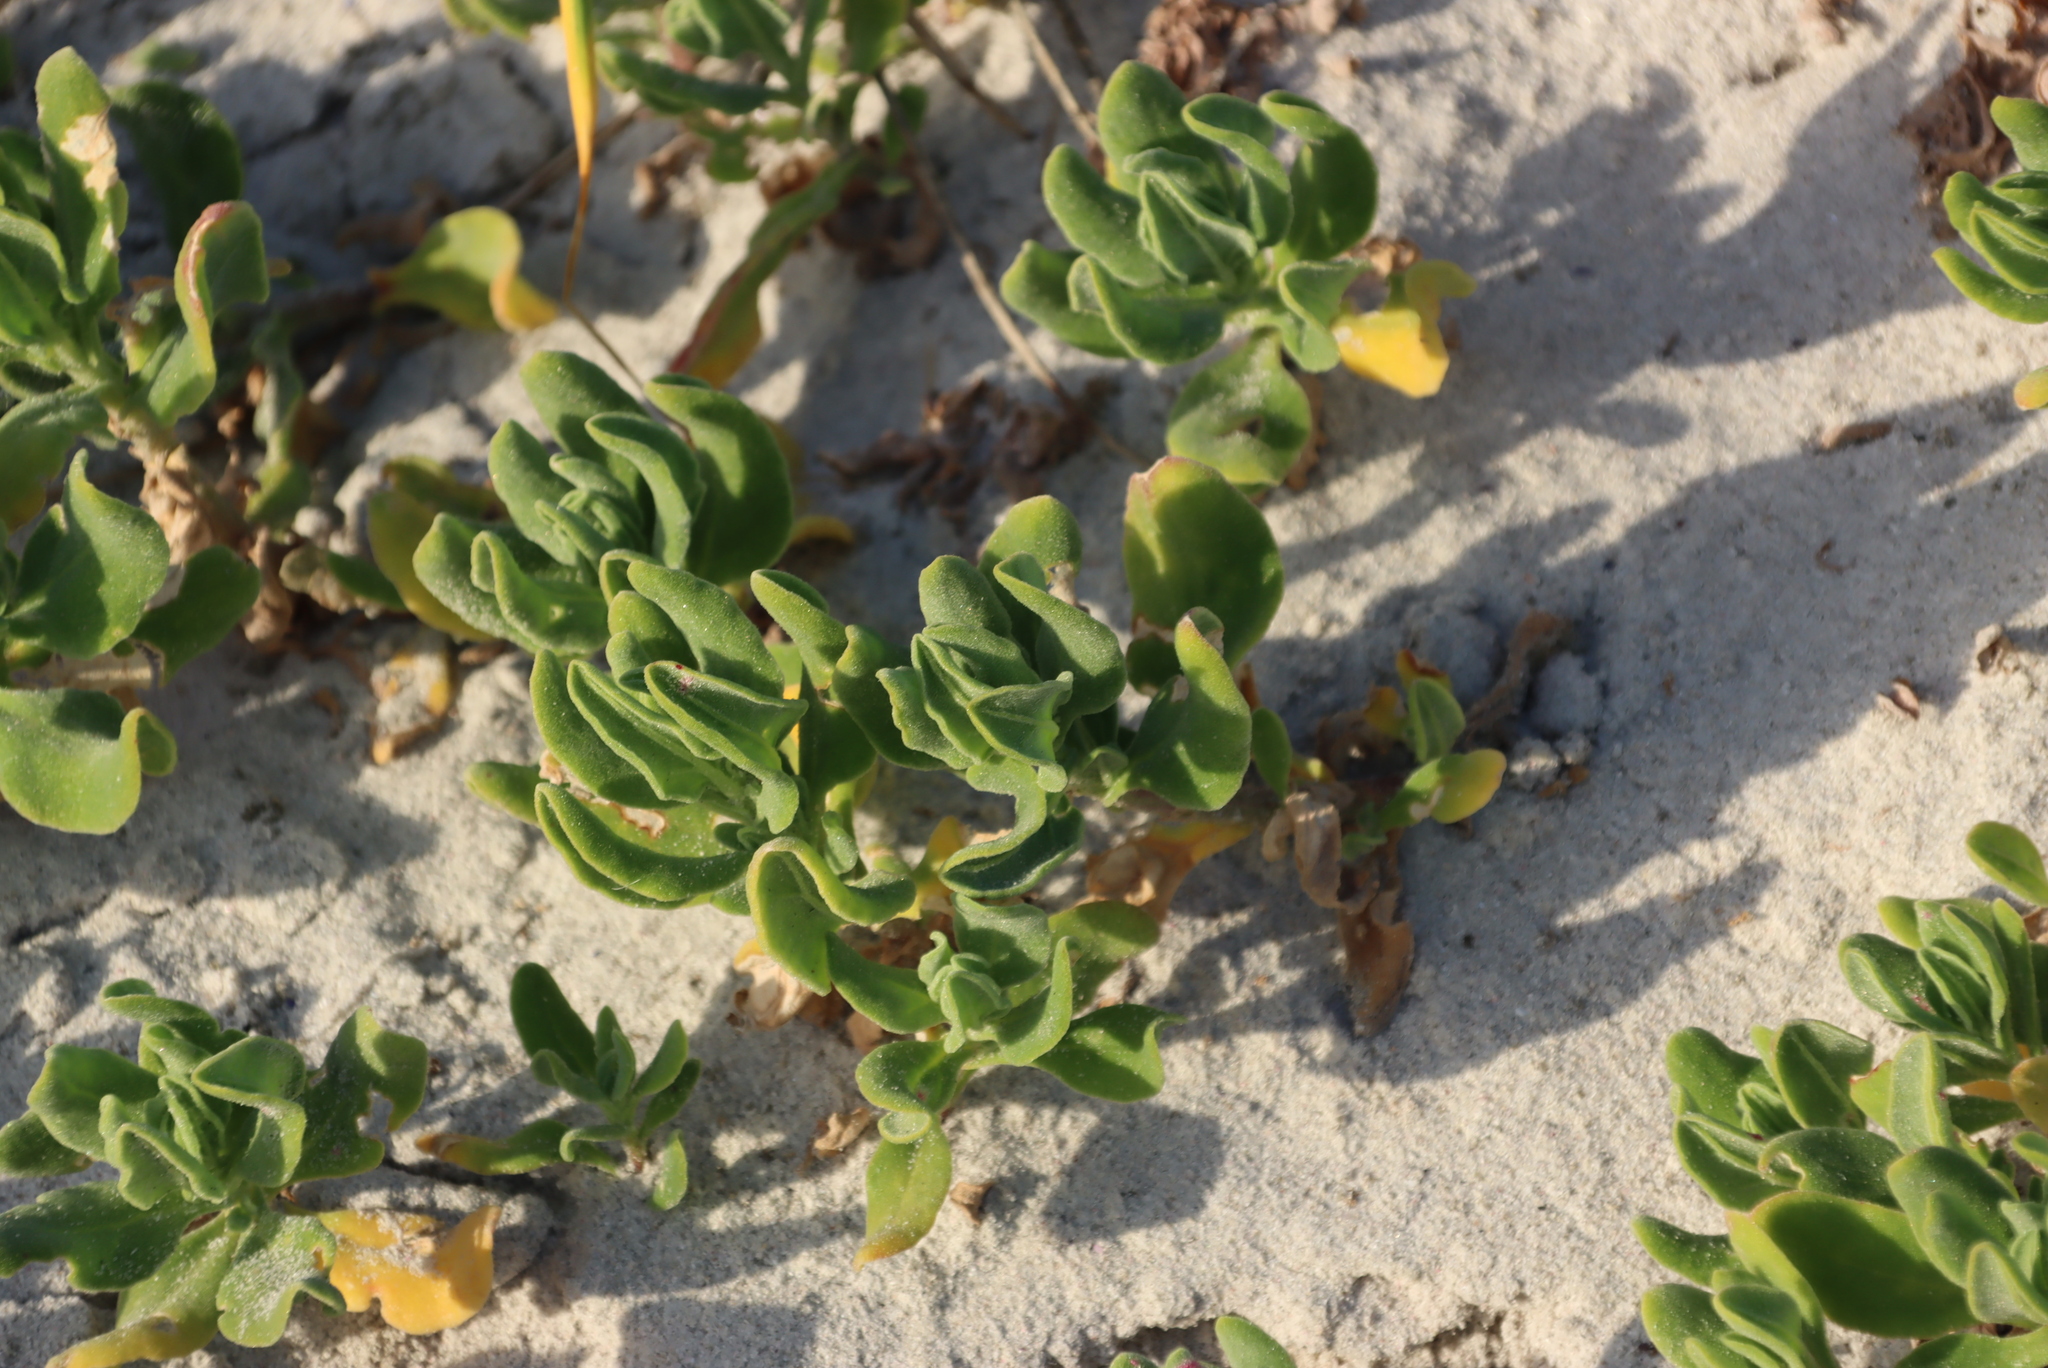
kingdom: Plantae
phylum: Tracheophyta
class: Magnoliopsida
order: Caryophyllales
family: Aizoaceae
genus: Tetragonia
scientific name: Tetragonia decumbens
